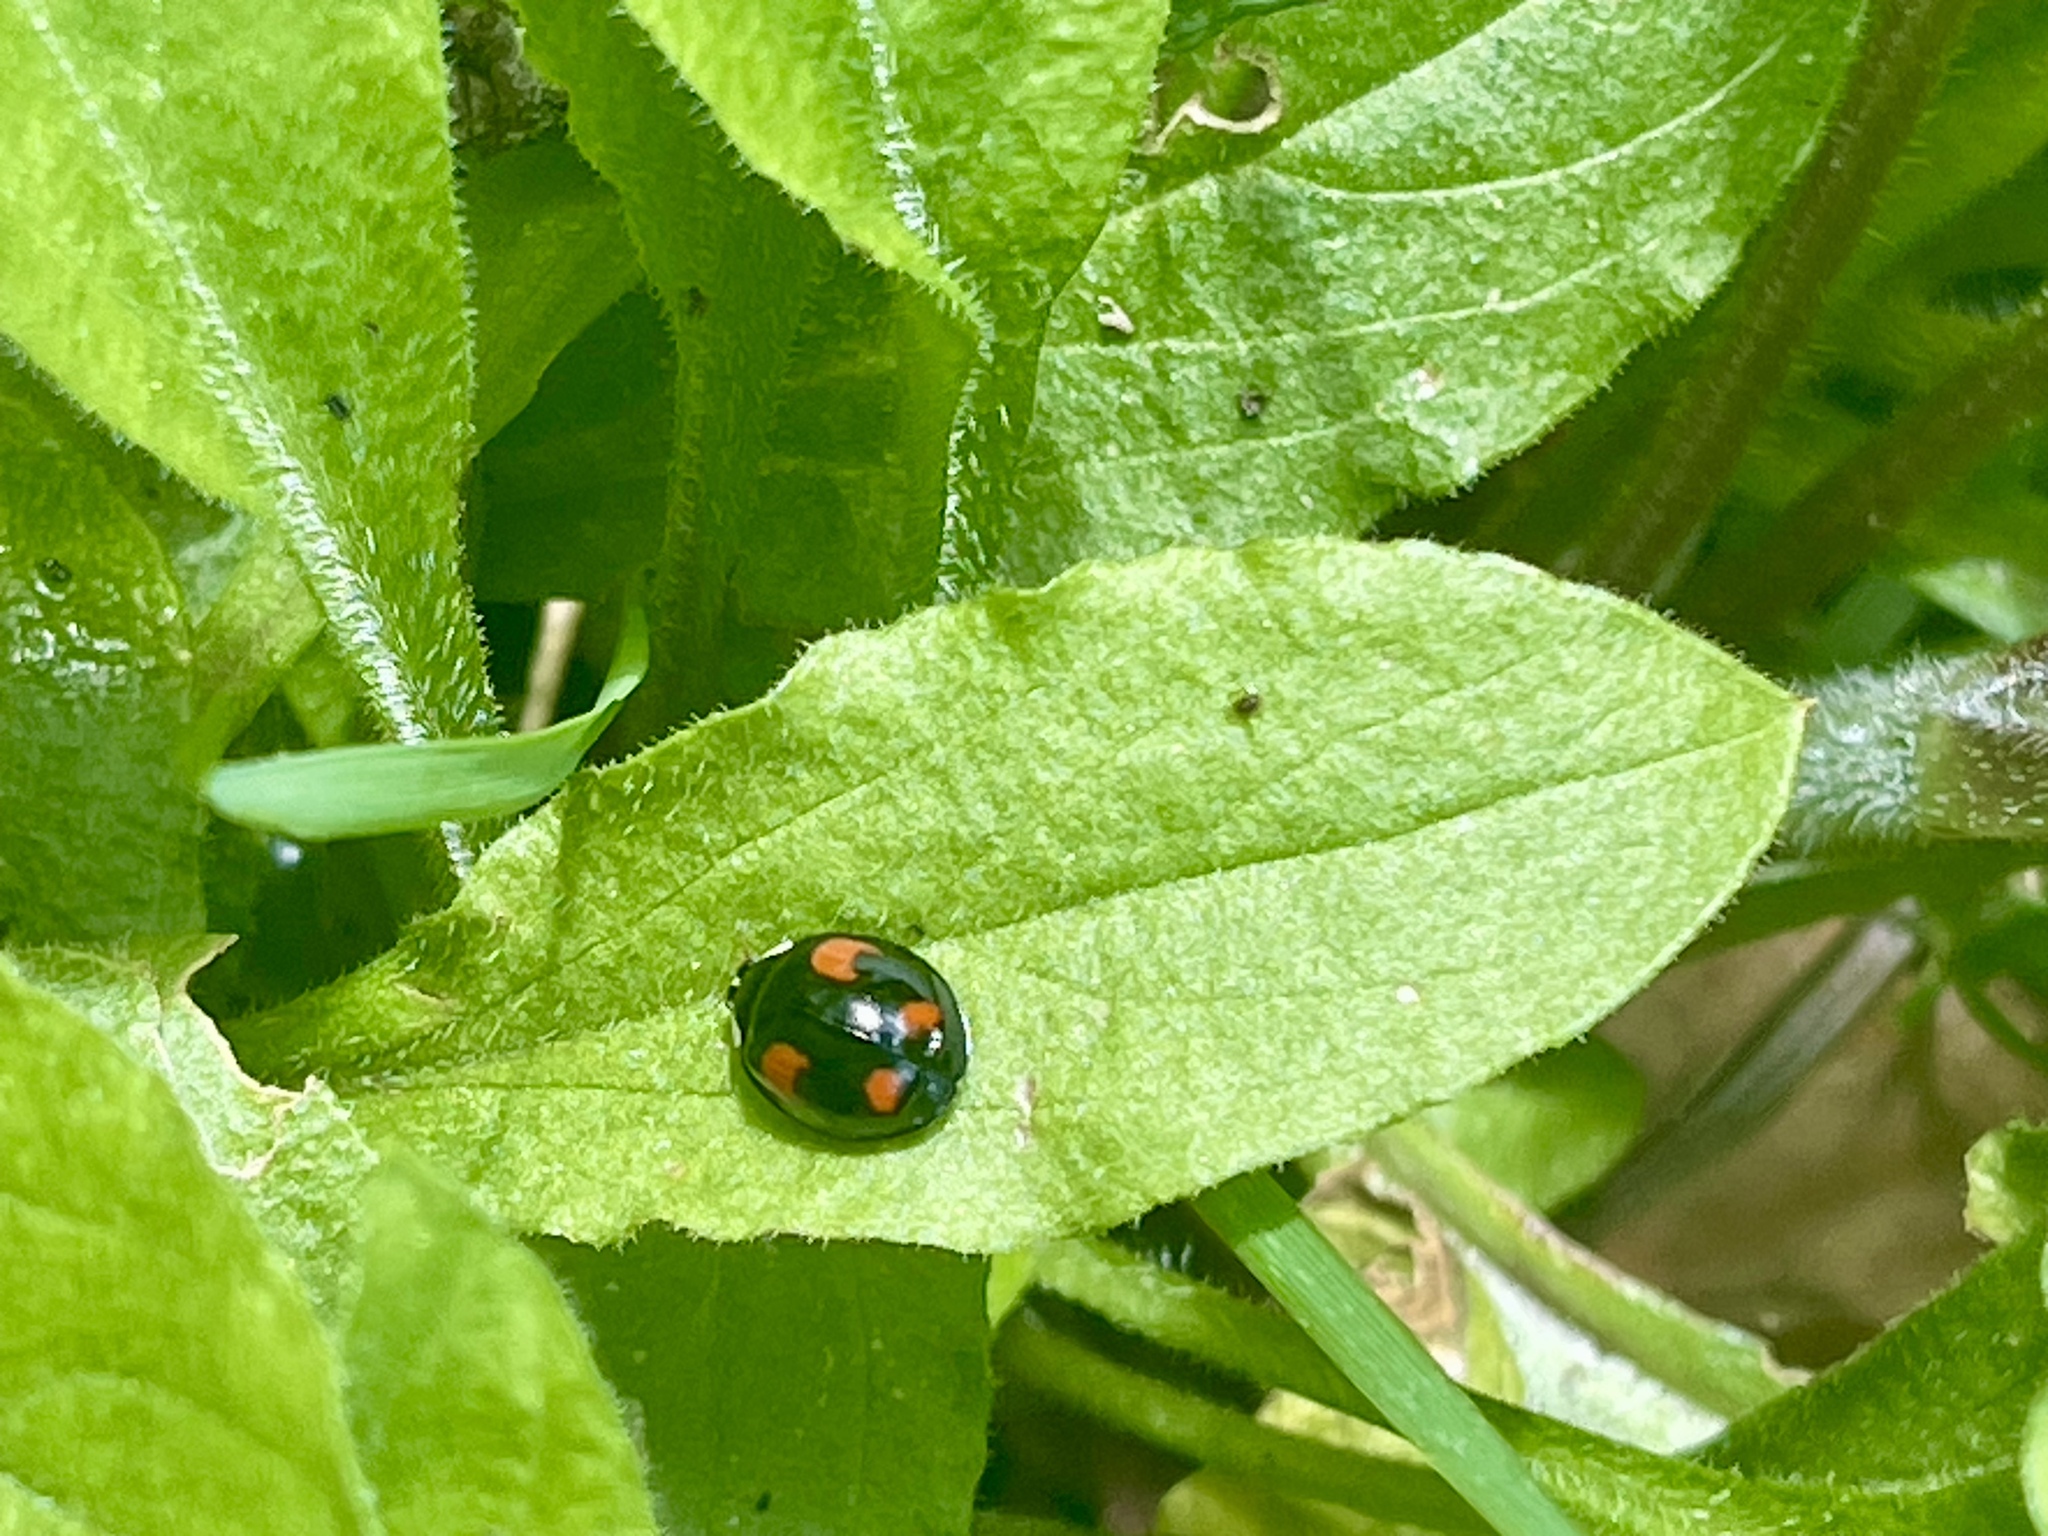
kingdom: Animalia
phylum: Arthropoda
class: Insecta
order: Coleoptera
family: Coccinellidae
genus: Harmonia
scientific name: Harmonia axyridis
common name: Harlequin ladybird
